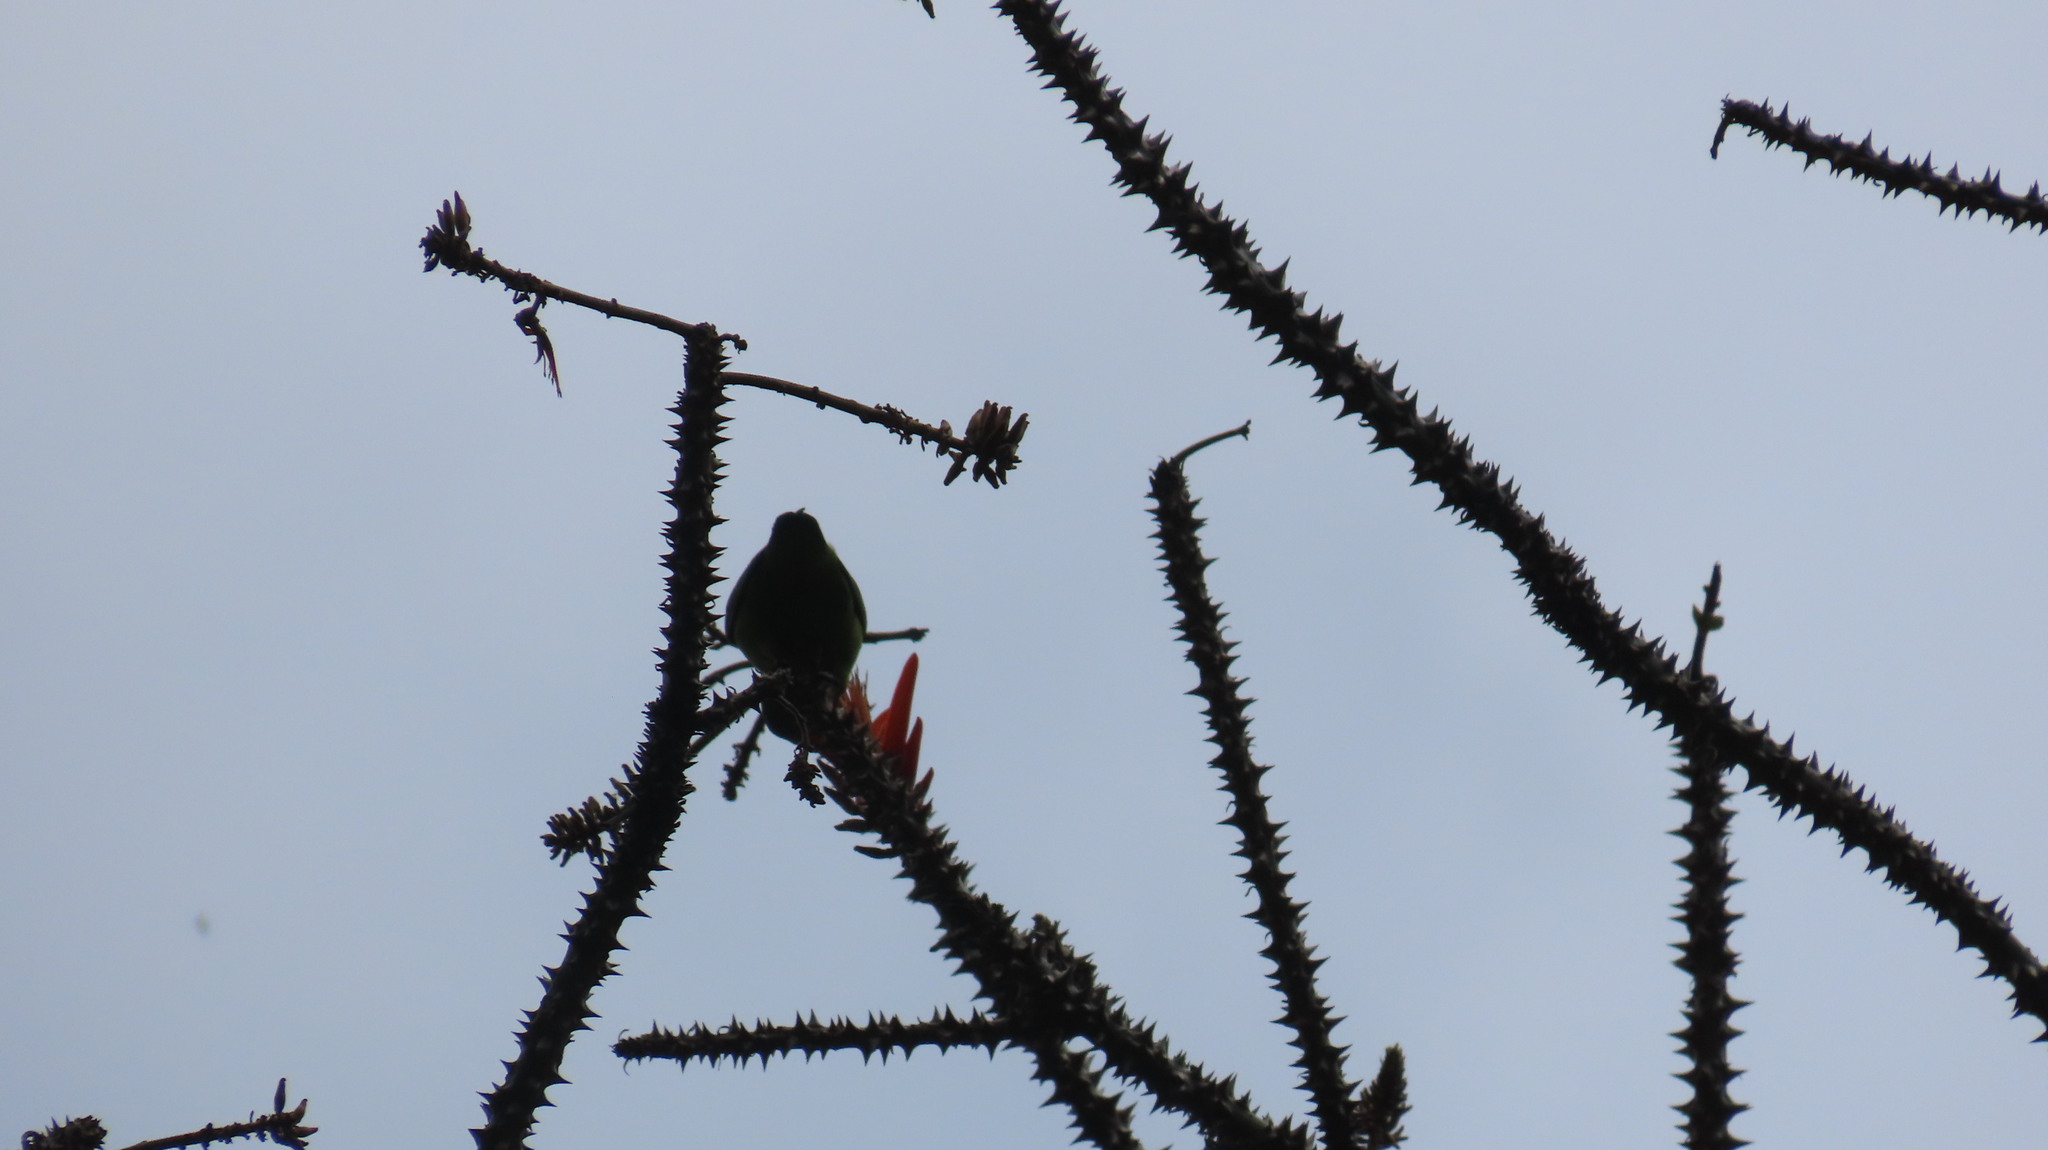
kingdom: Animalia
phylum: Chordata
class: Aves
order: Passeriformes
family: Chloropseidae
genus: Chloropsis
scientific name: Chloropsis aurifrons
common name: Golden-fronted leafbird
